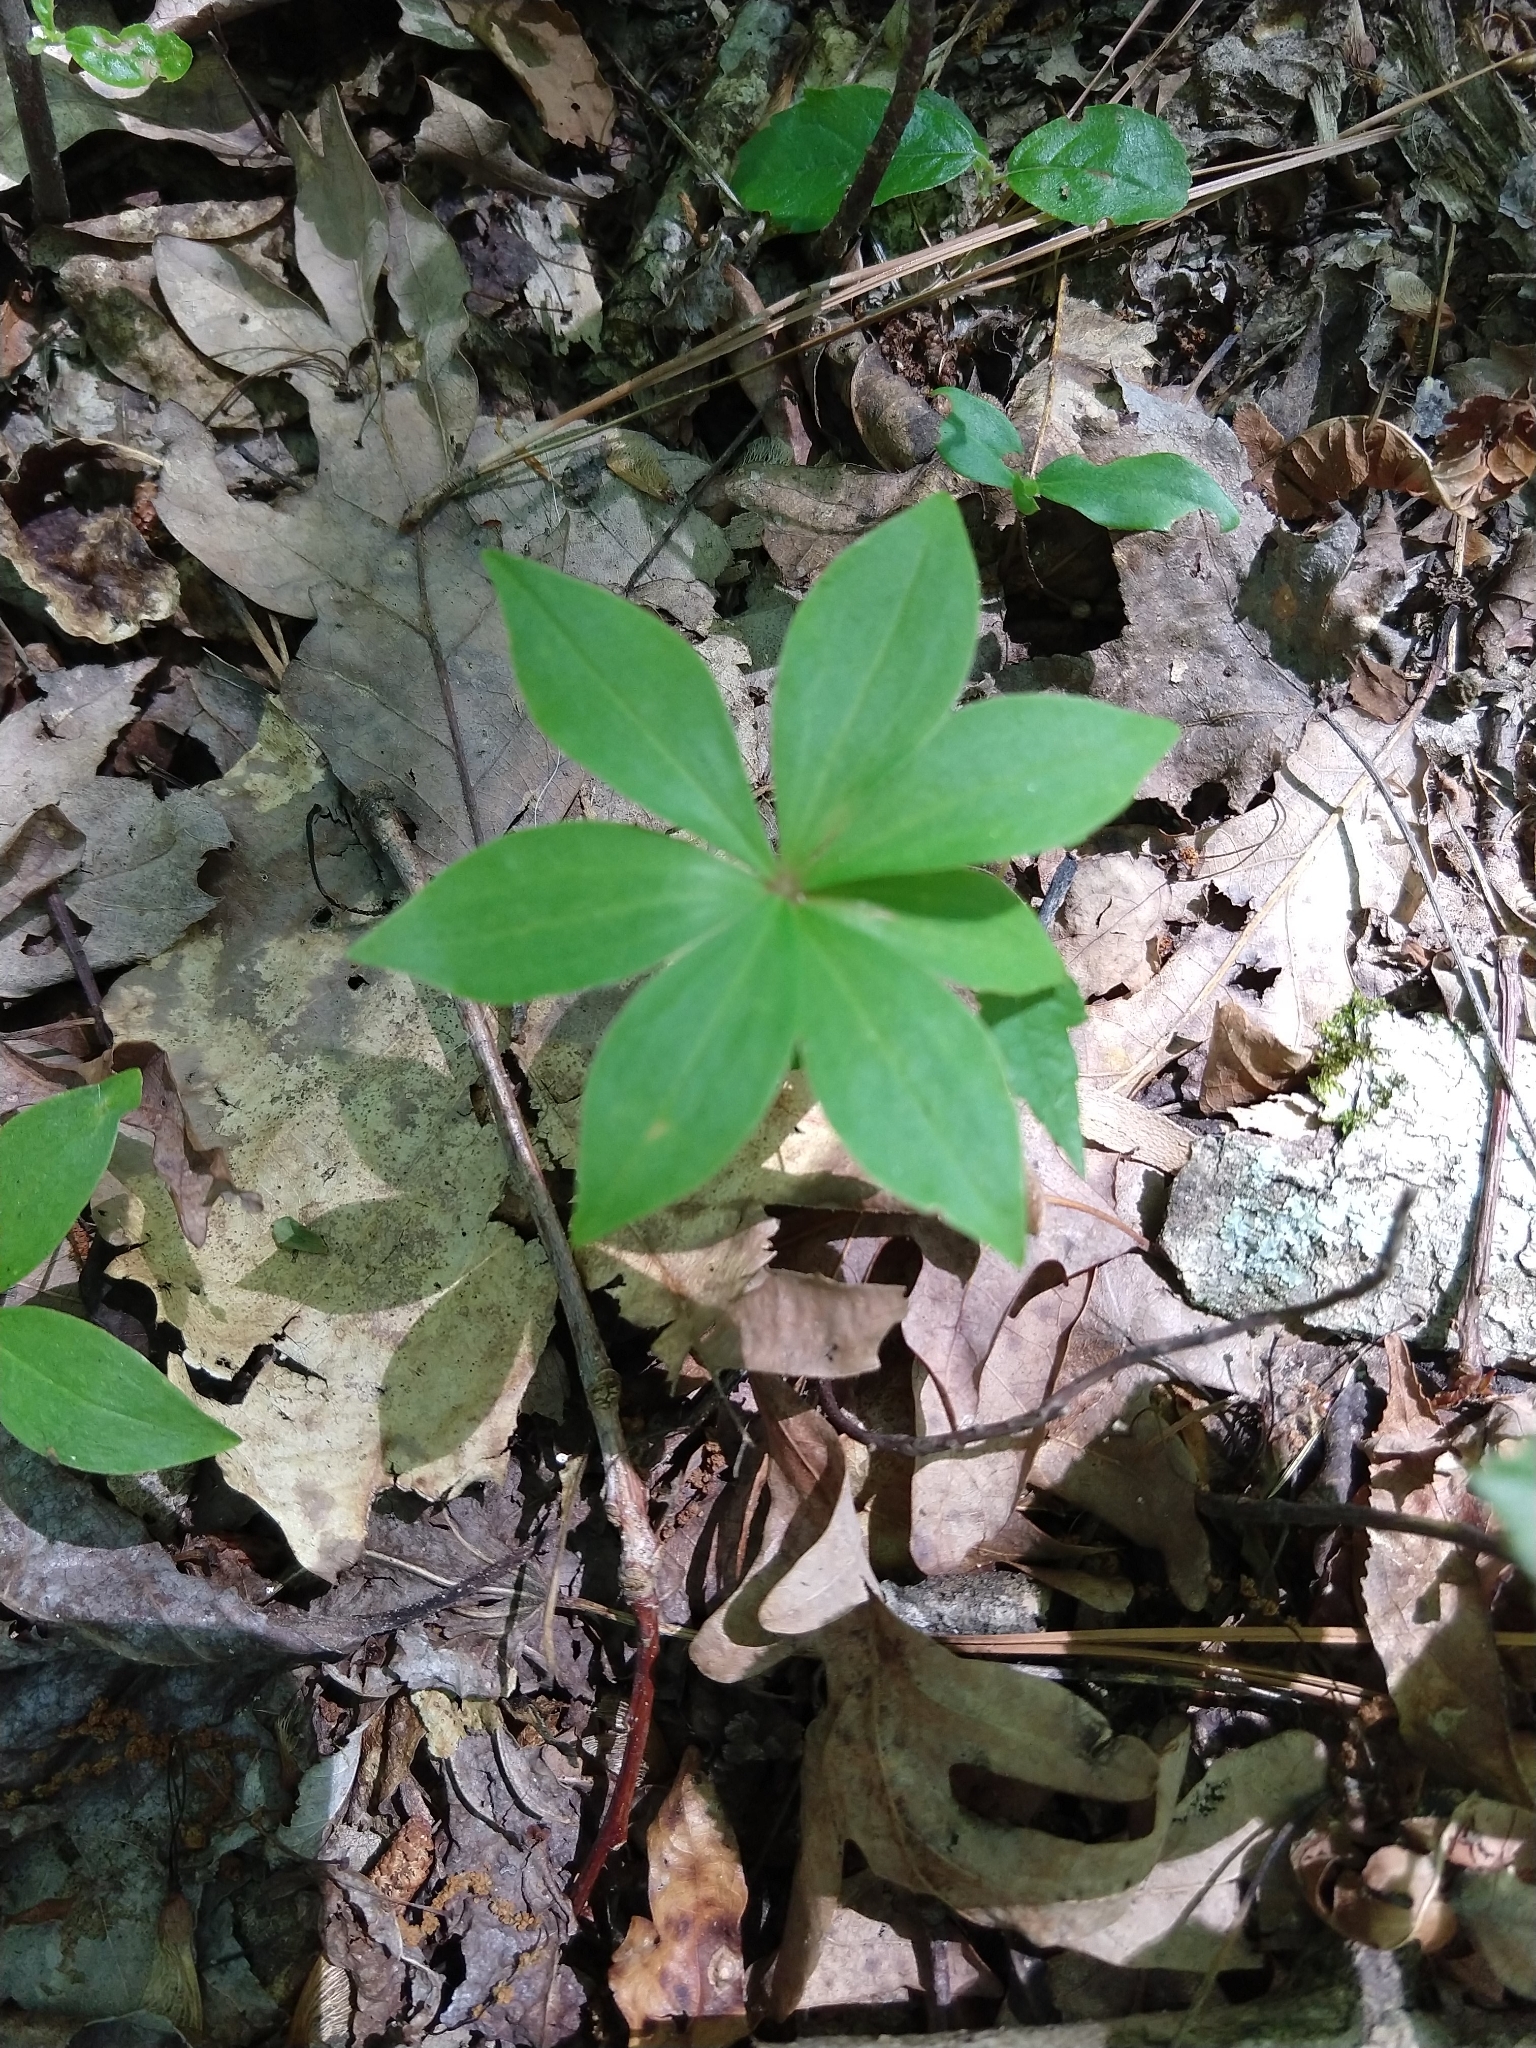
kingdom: Plantae
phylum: Tracheophyta
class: Liliopsida
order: Liliales
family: Liliaceae
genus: Medeola
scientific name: Medeola virginiana
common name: Indian cucumber-root
